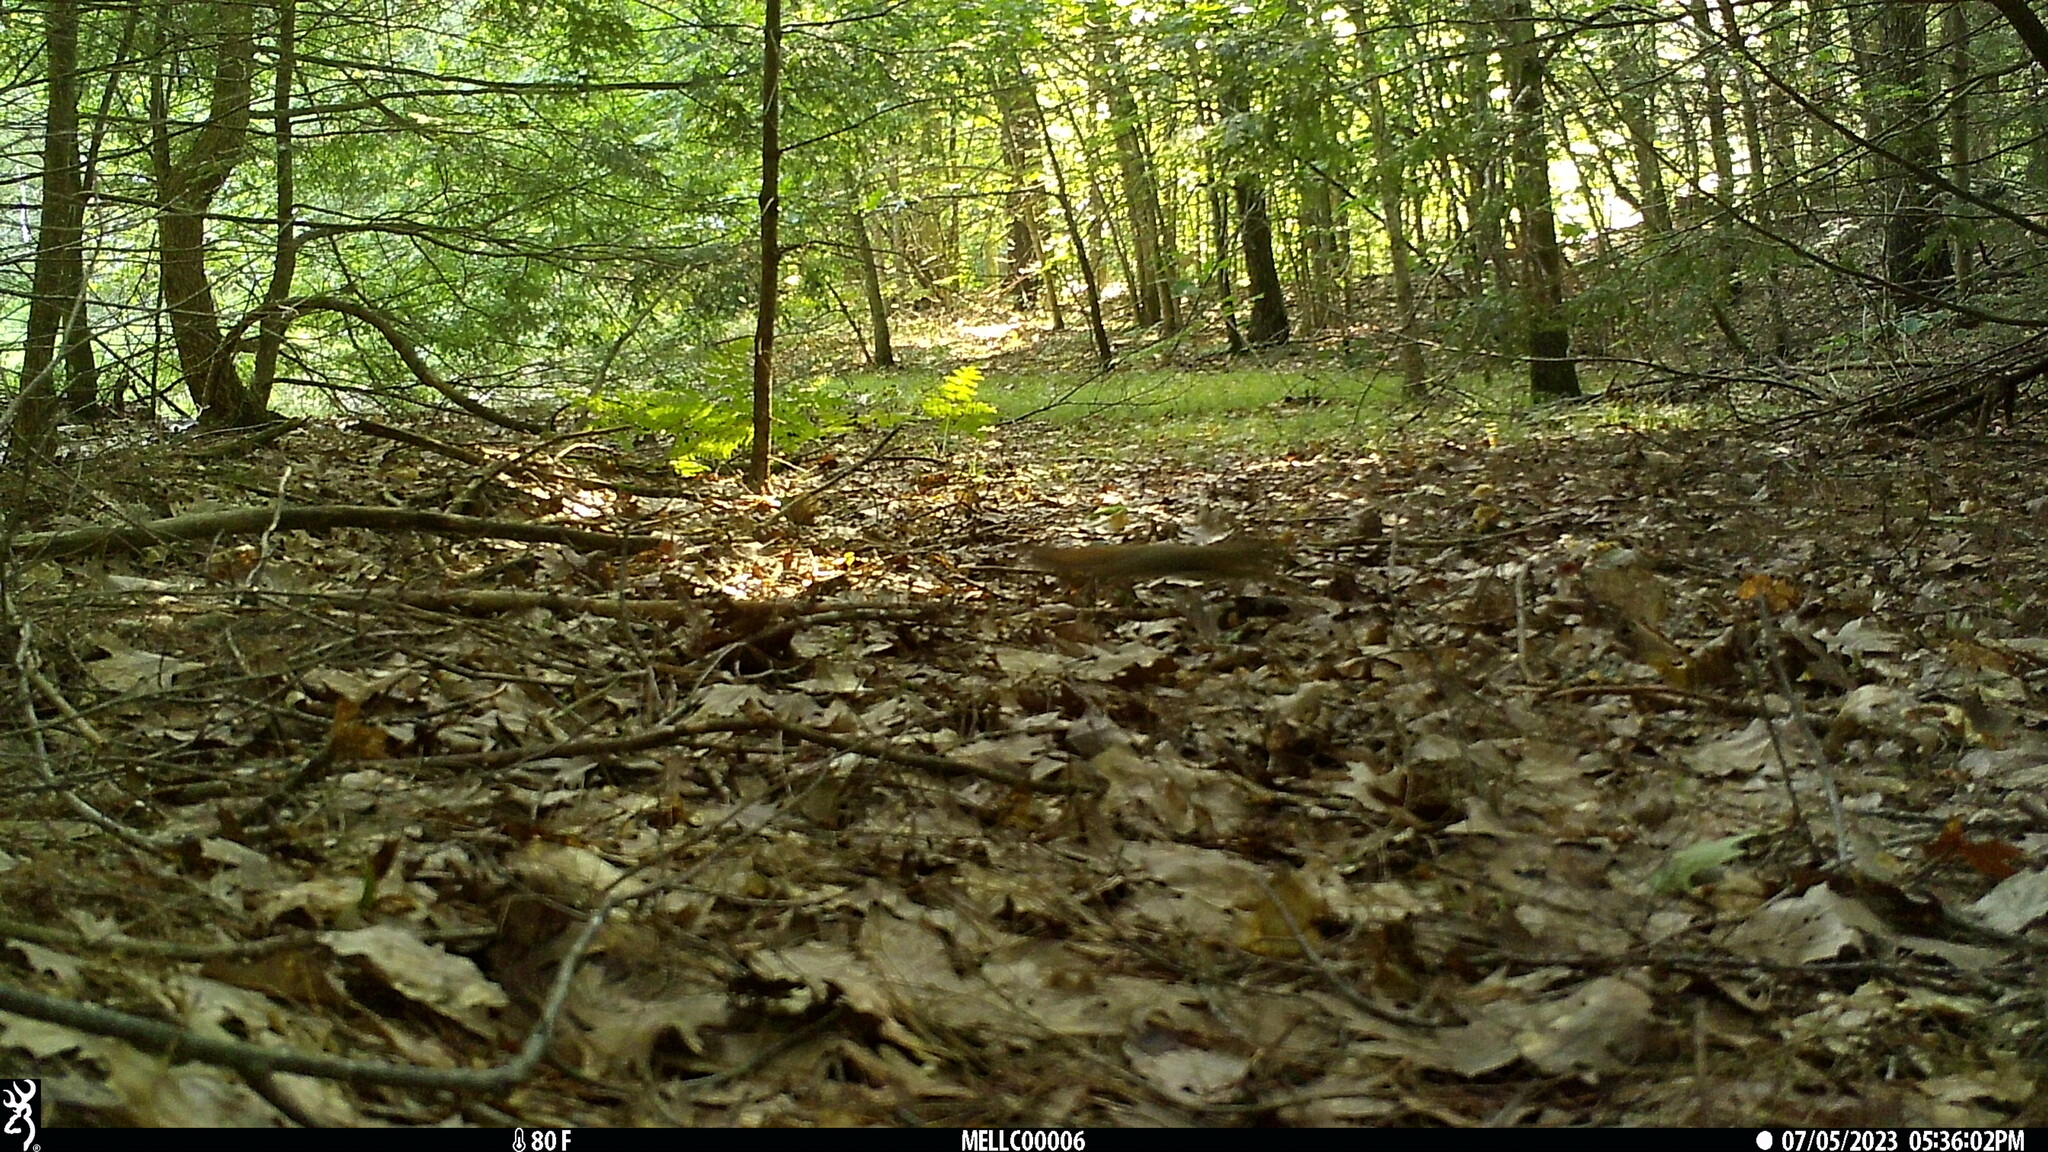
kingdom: Animalia
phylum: Chordata
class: Mammalia
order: Rodentia
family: Sciuridae
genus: Tamiasciurus
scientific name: Tamiasciurus hudsonicus
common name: Red squirrel
